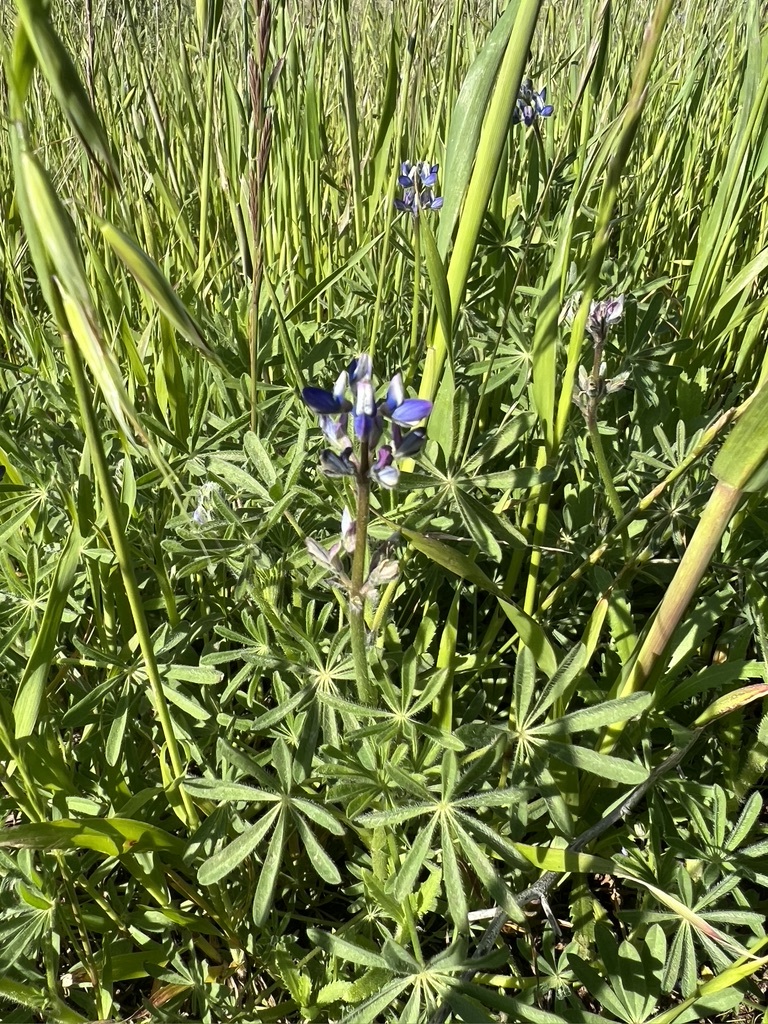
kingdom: Plantae
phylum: Tracheophyta
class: Magnoliopsida
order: Fabales
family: Fabaceae
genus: Lupinus
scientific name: Lupinus bicolor
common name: Miniature lupine
